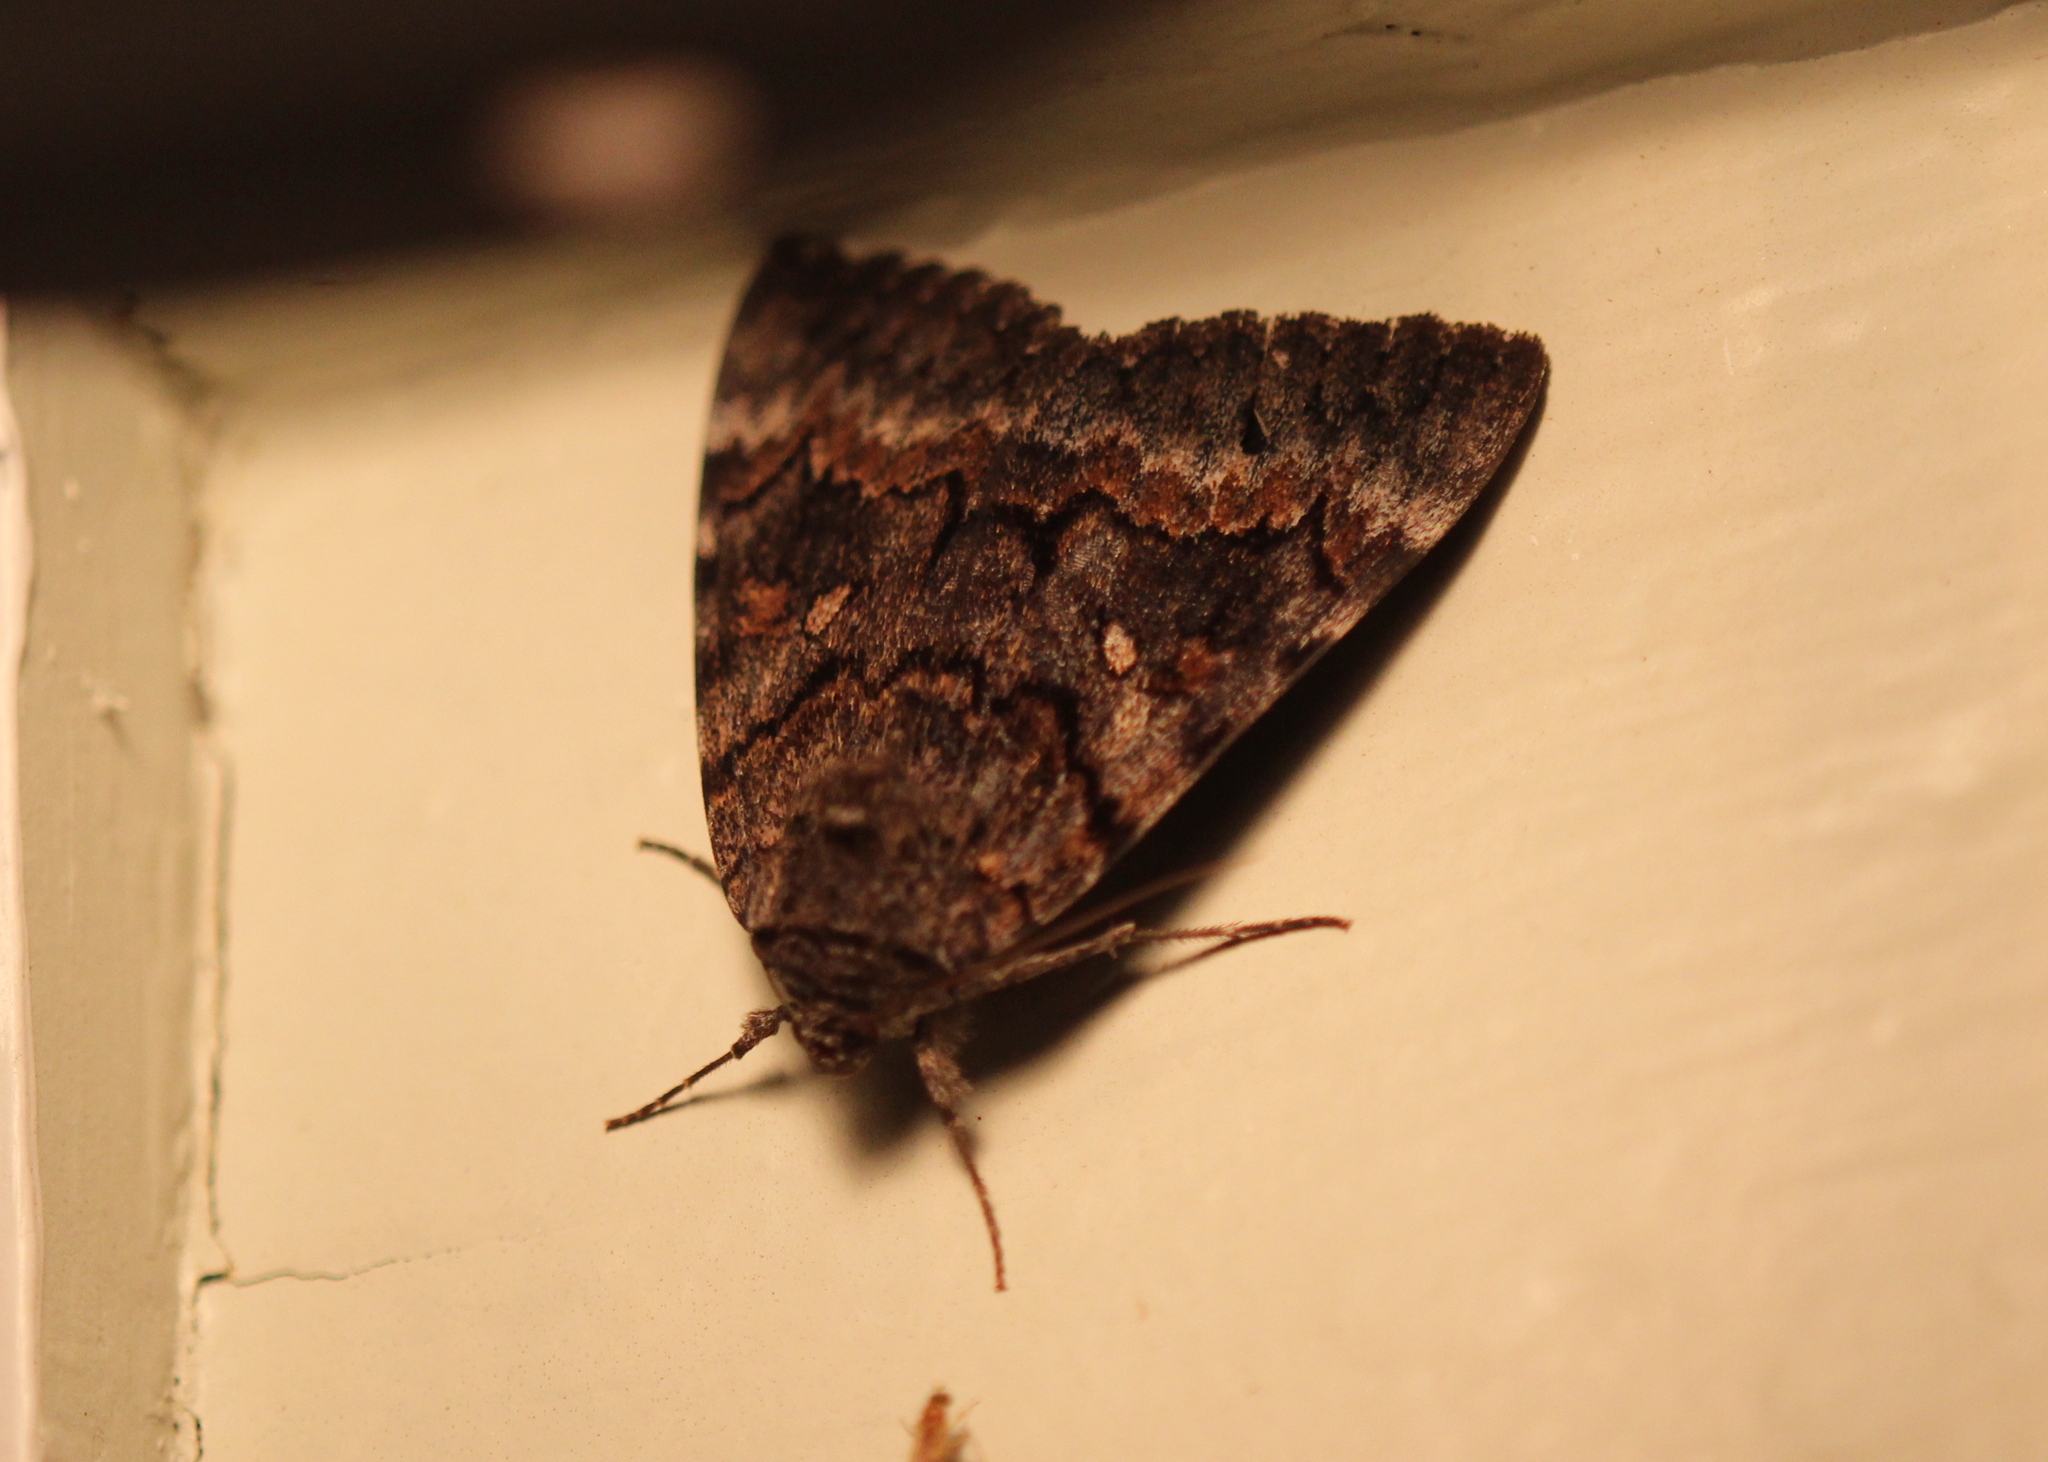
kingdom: Animalia
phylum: Arthropoda
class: Insecta
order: Lepidoptera
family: Erebidae
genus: Catocala
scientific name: Catocala epione
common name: Epione underwing
